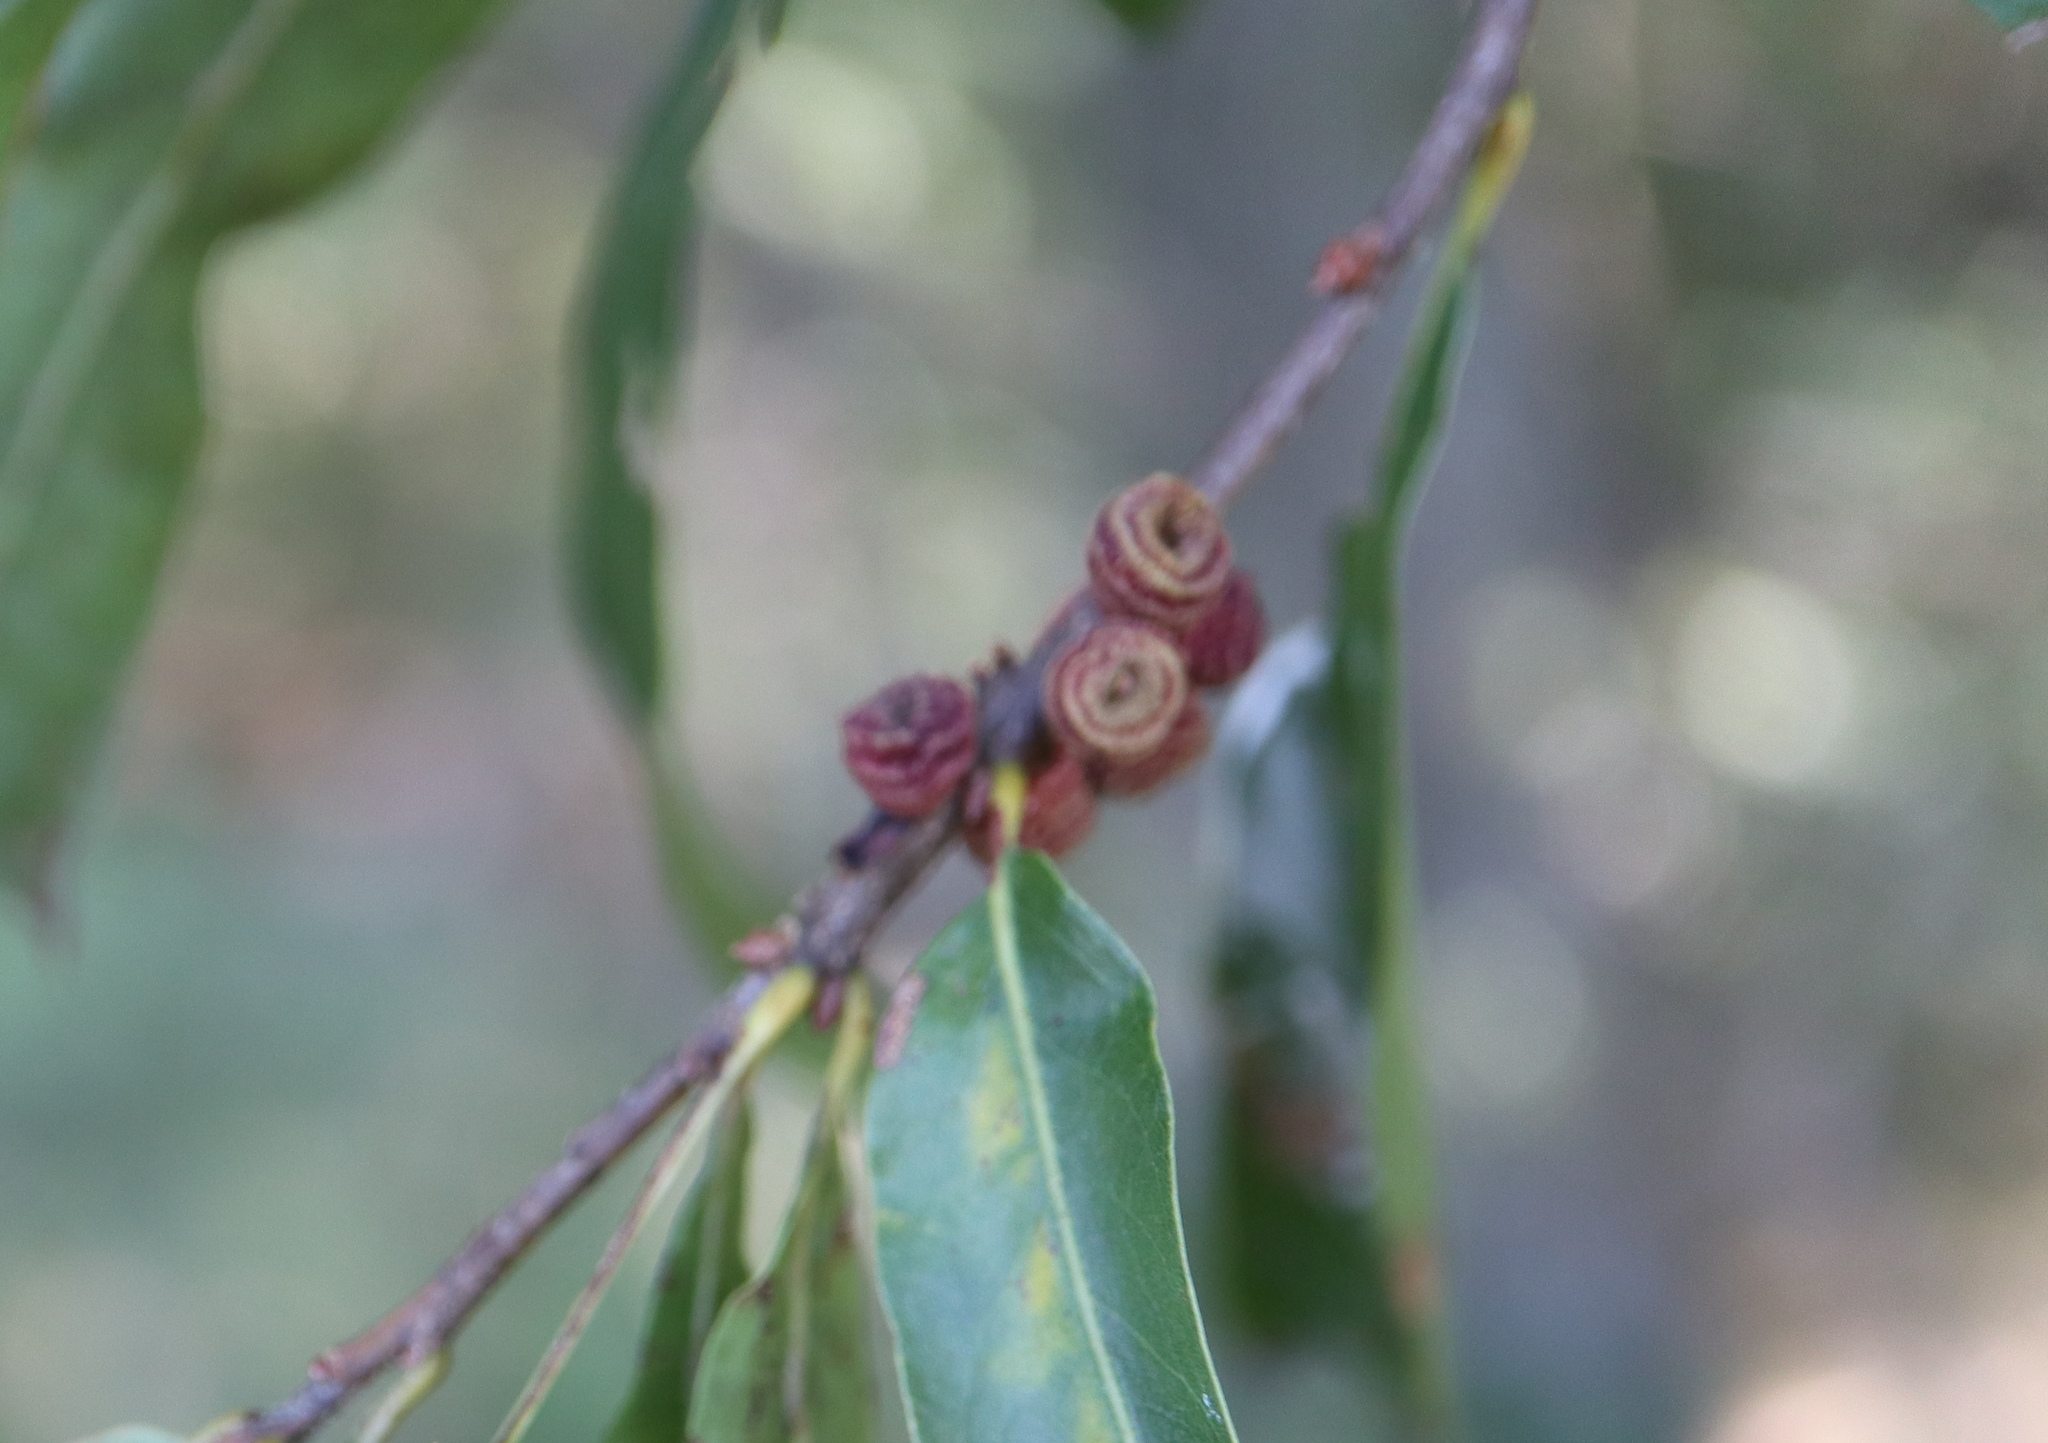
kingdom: Animalia
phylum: Arthropoda
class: Insecta
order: Hymenoptera
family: Cynipidae
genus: Kokkocynips
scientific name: Kokkocynips difficilis
